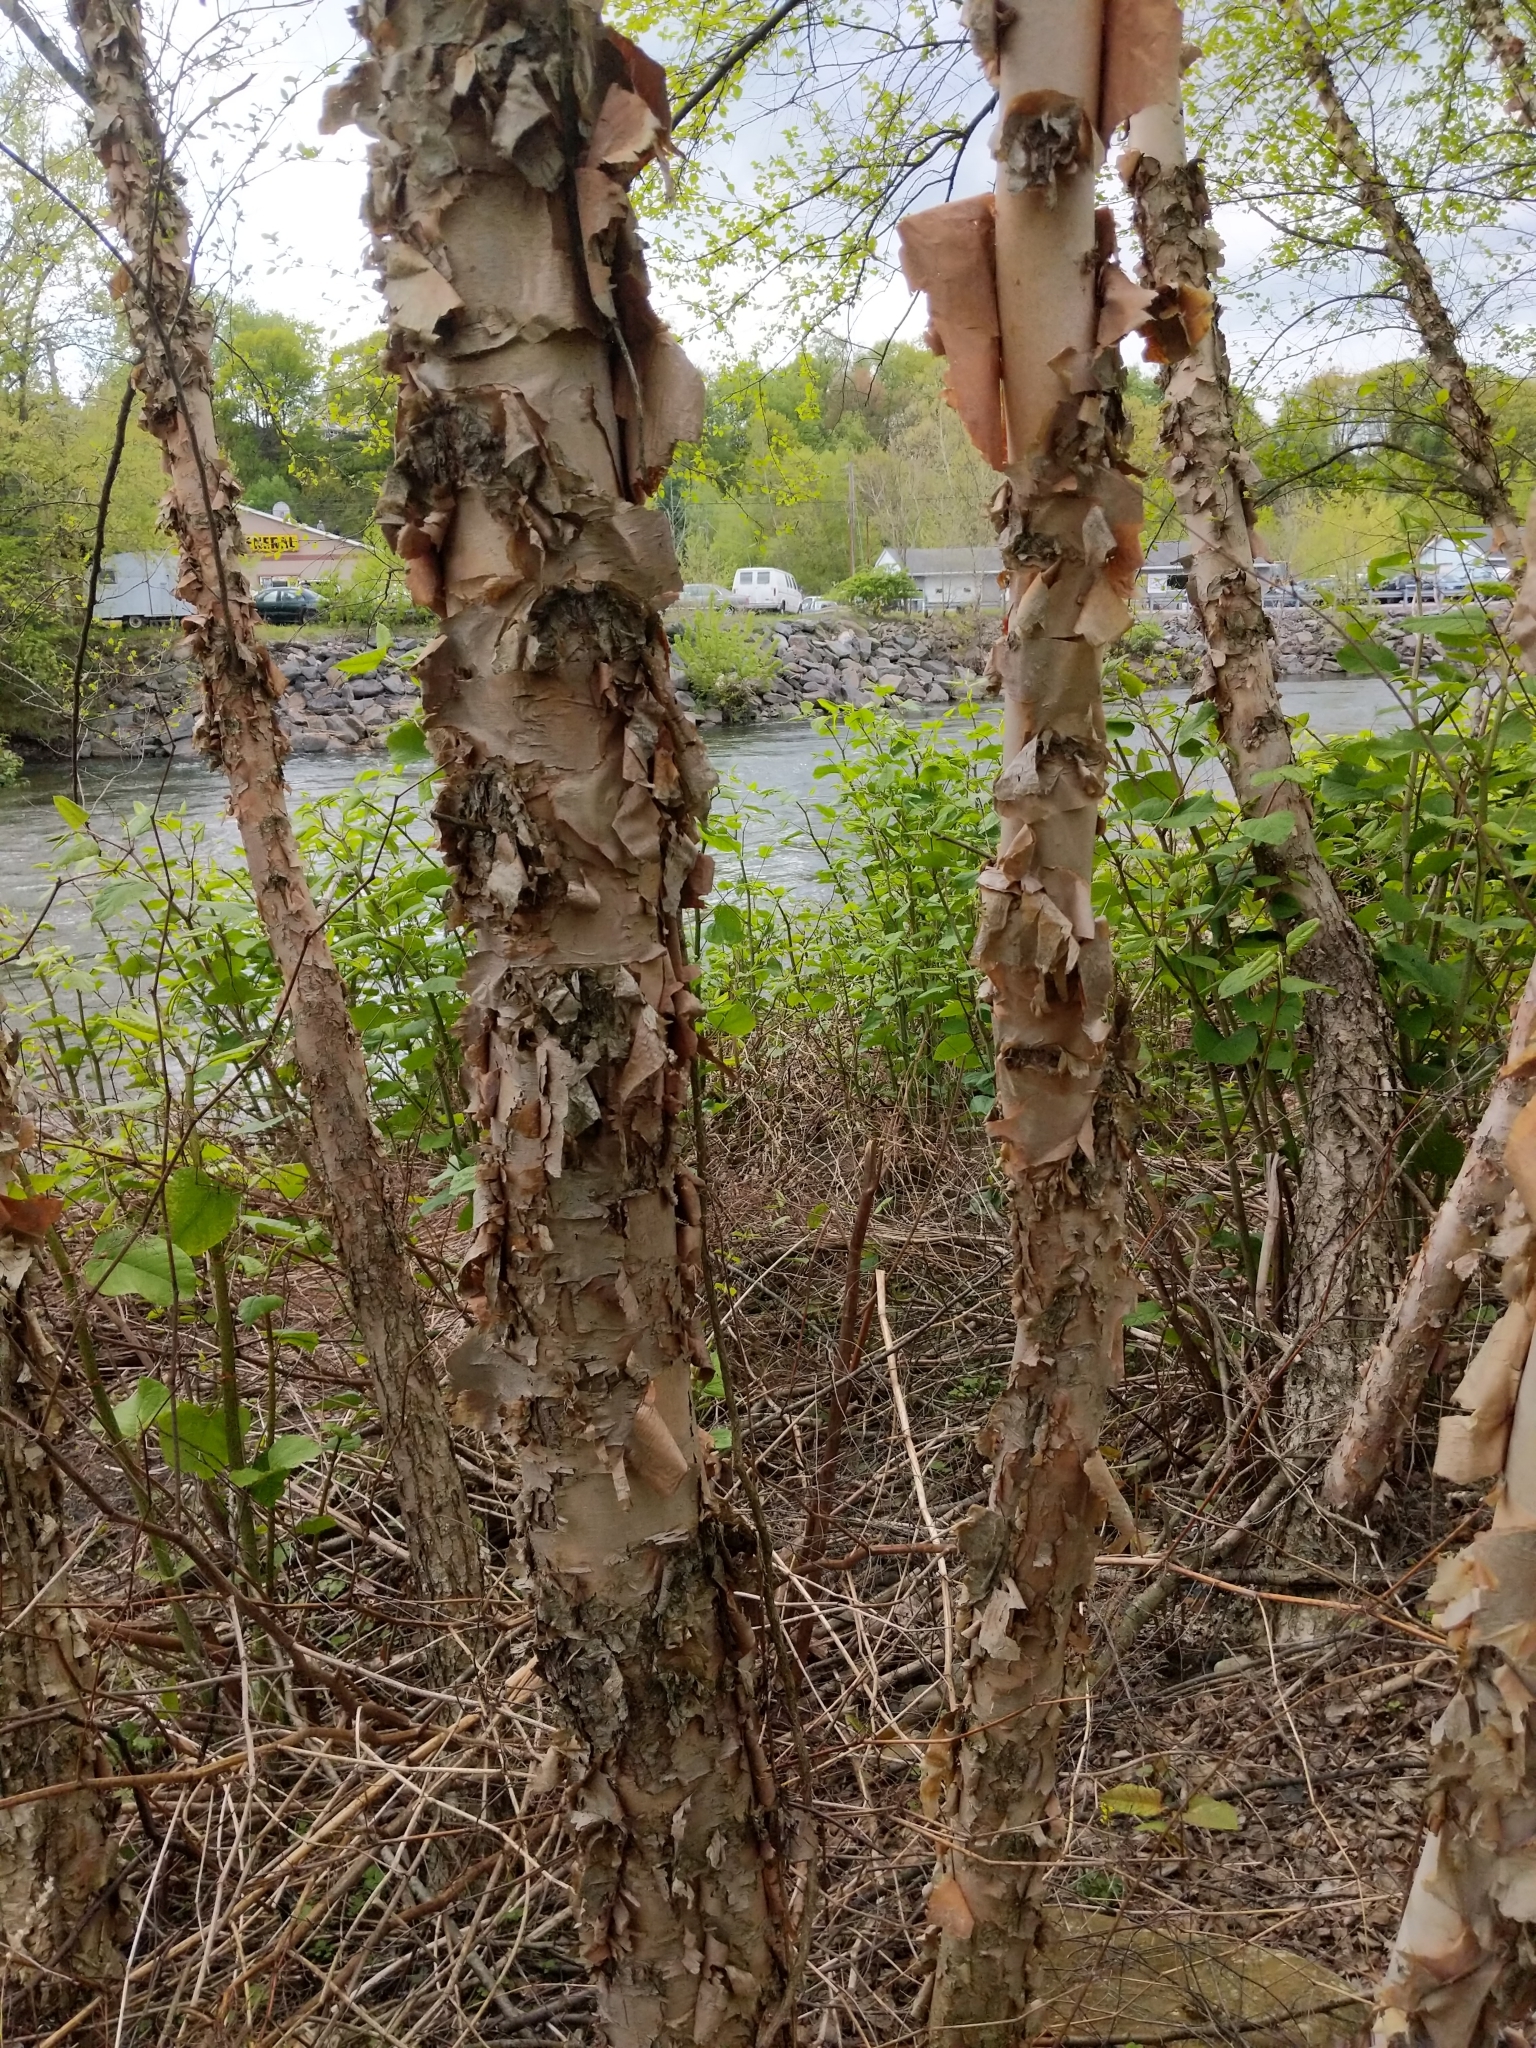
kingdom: Plantae
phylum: Tracheophyta
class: Magnoliopsida
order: Fagales
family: Betulaceae
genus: Betula
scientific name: Betula nigra
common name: Black birch
